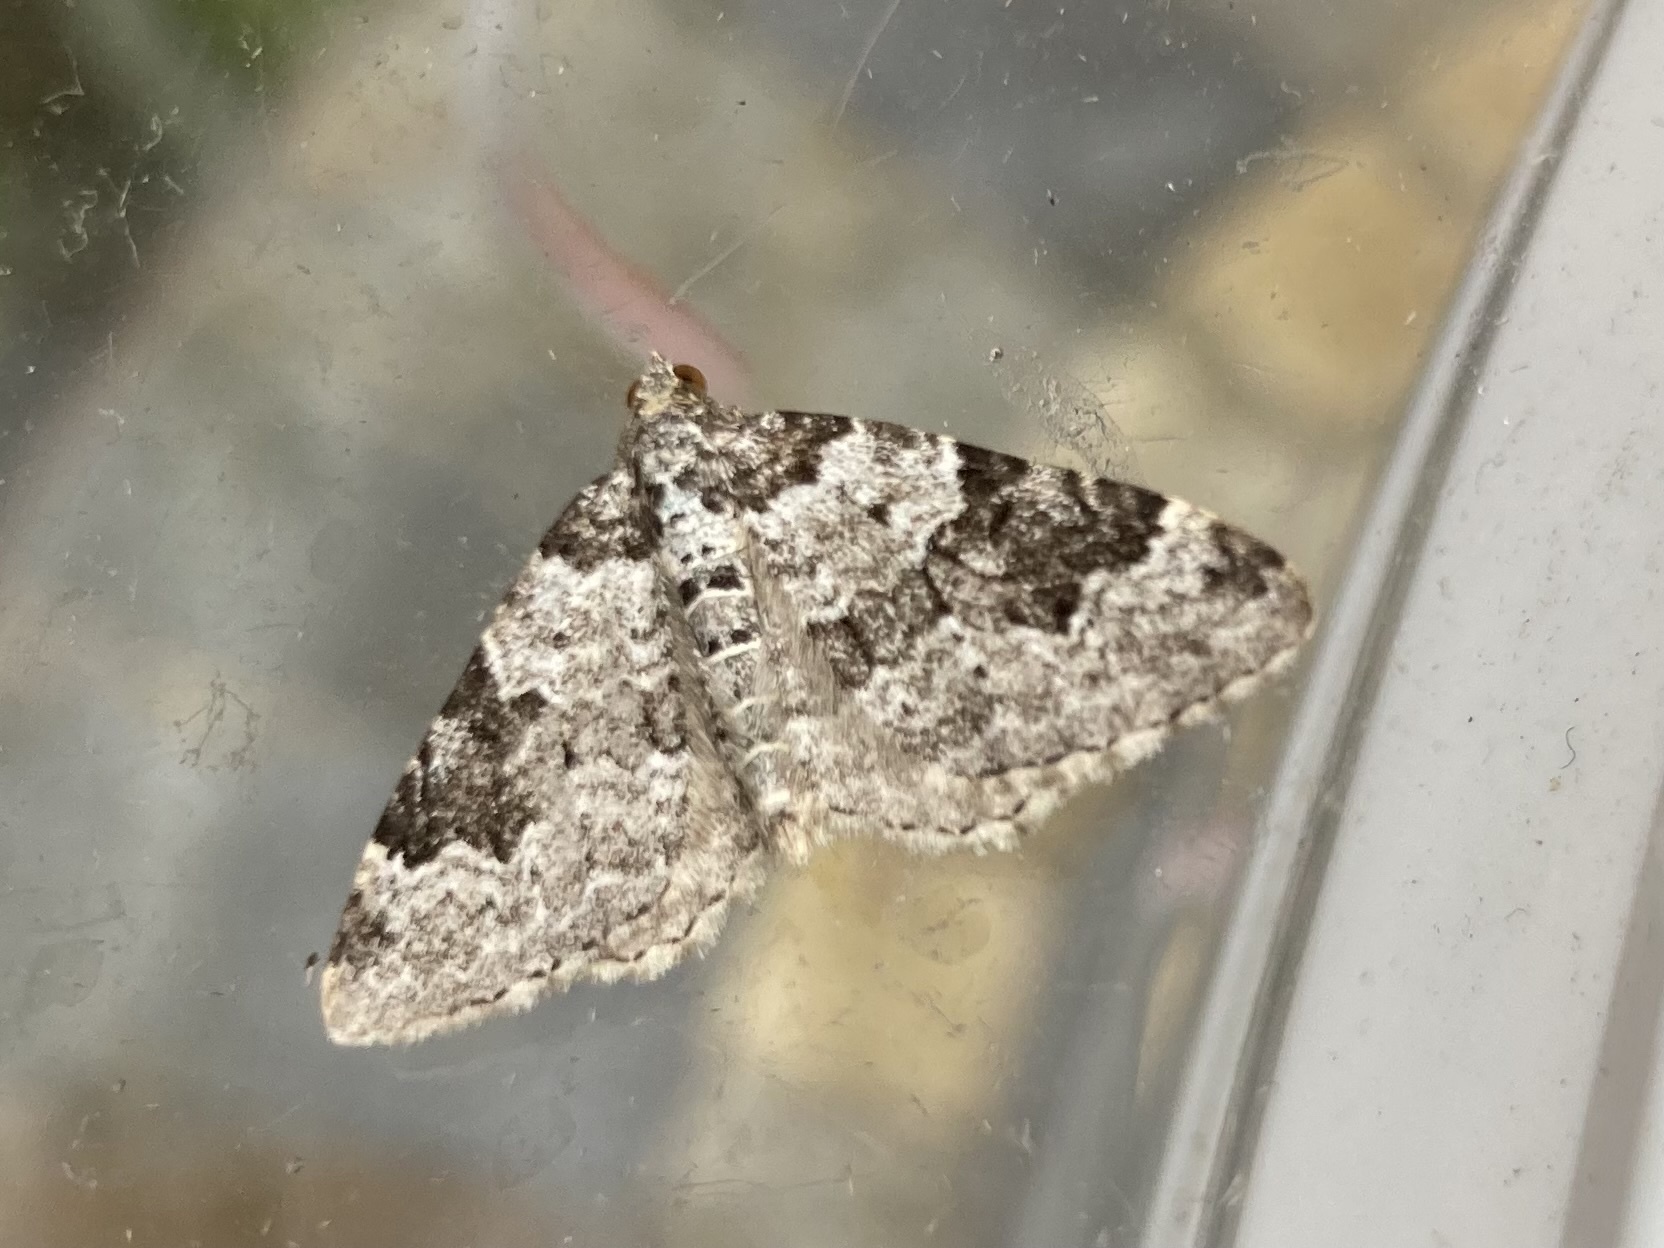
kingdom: Animalia
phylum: Arthropoda
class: Insecta
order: Lepidoptera
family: Geometridae
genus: Xanthorhoe
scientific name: Xanthorhoe fluctuata
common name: Garden carpet
